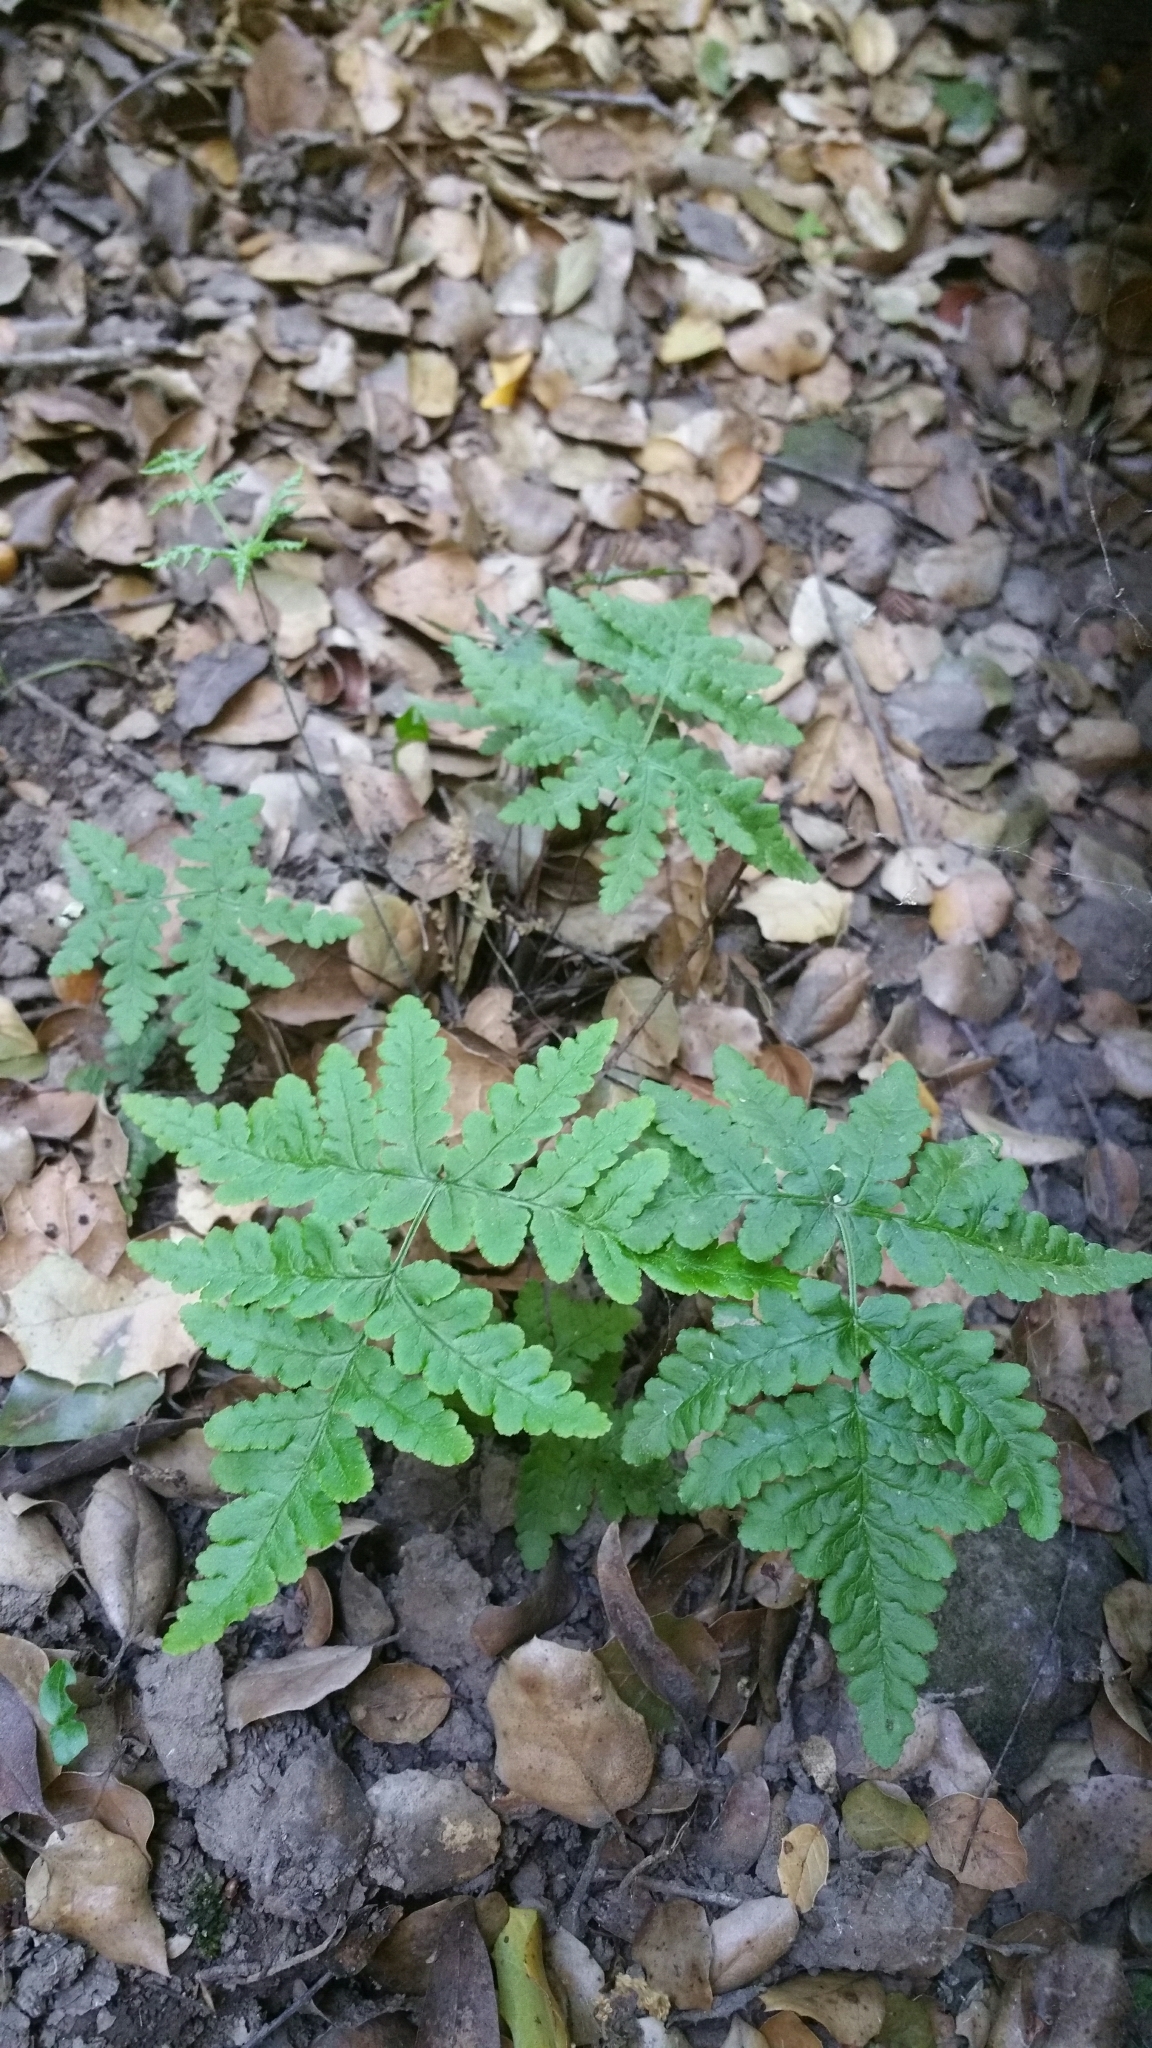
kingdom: Plantae
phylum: Tracheophyta
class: Polypodiopsida
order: Polypodiales
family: Pteridaceae
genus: Pentagramma
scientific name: Pentagramma triangularis
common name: Gold fern
